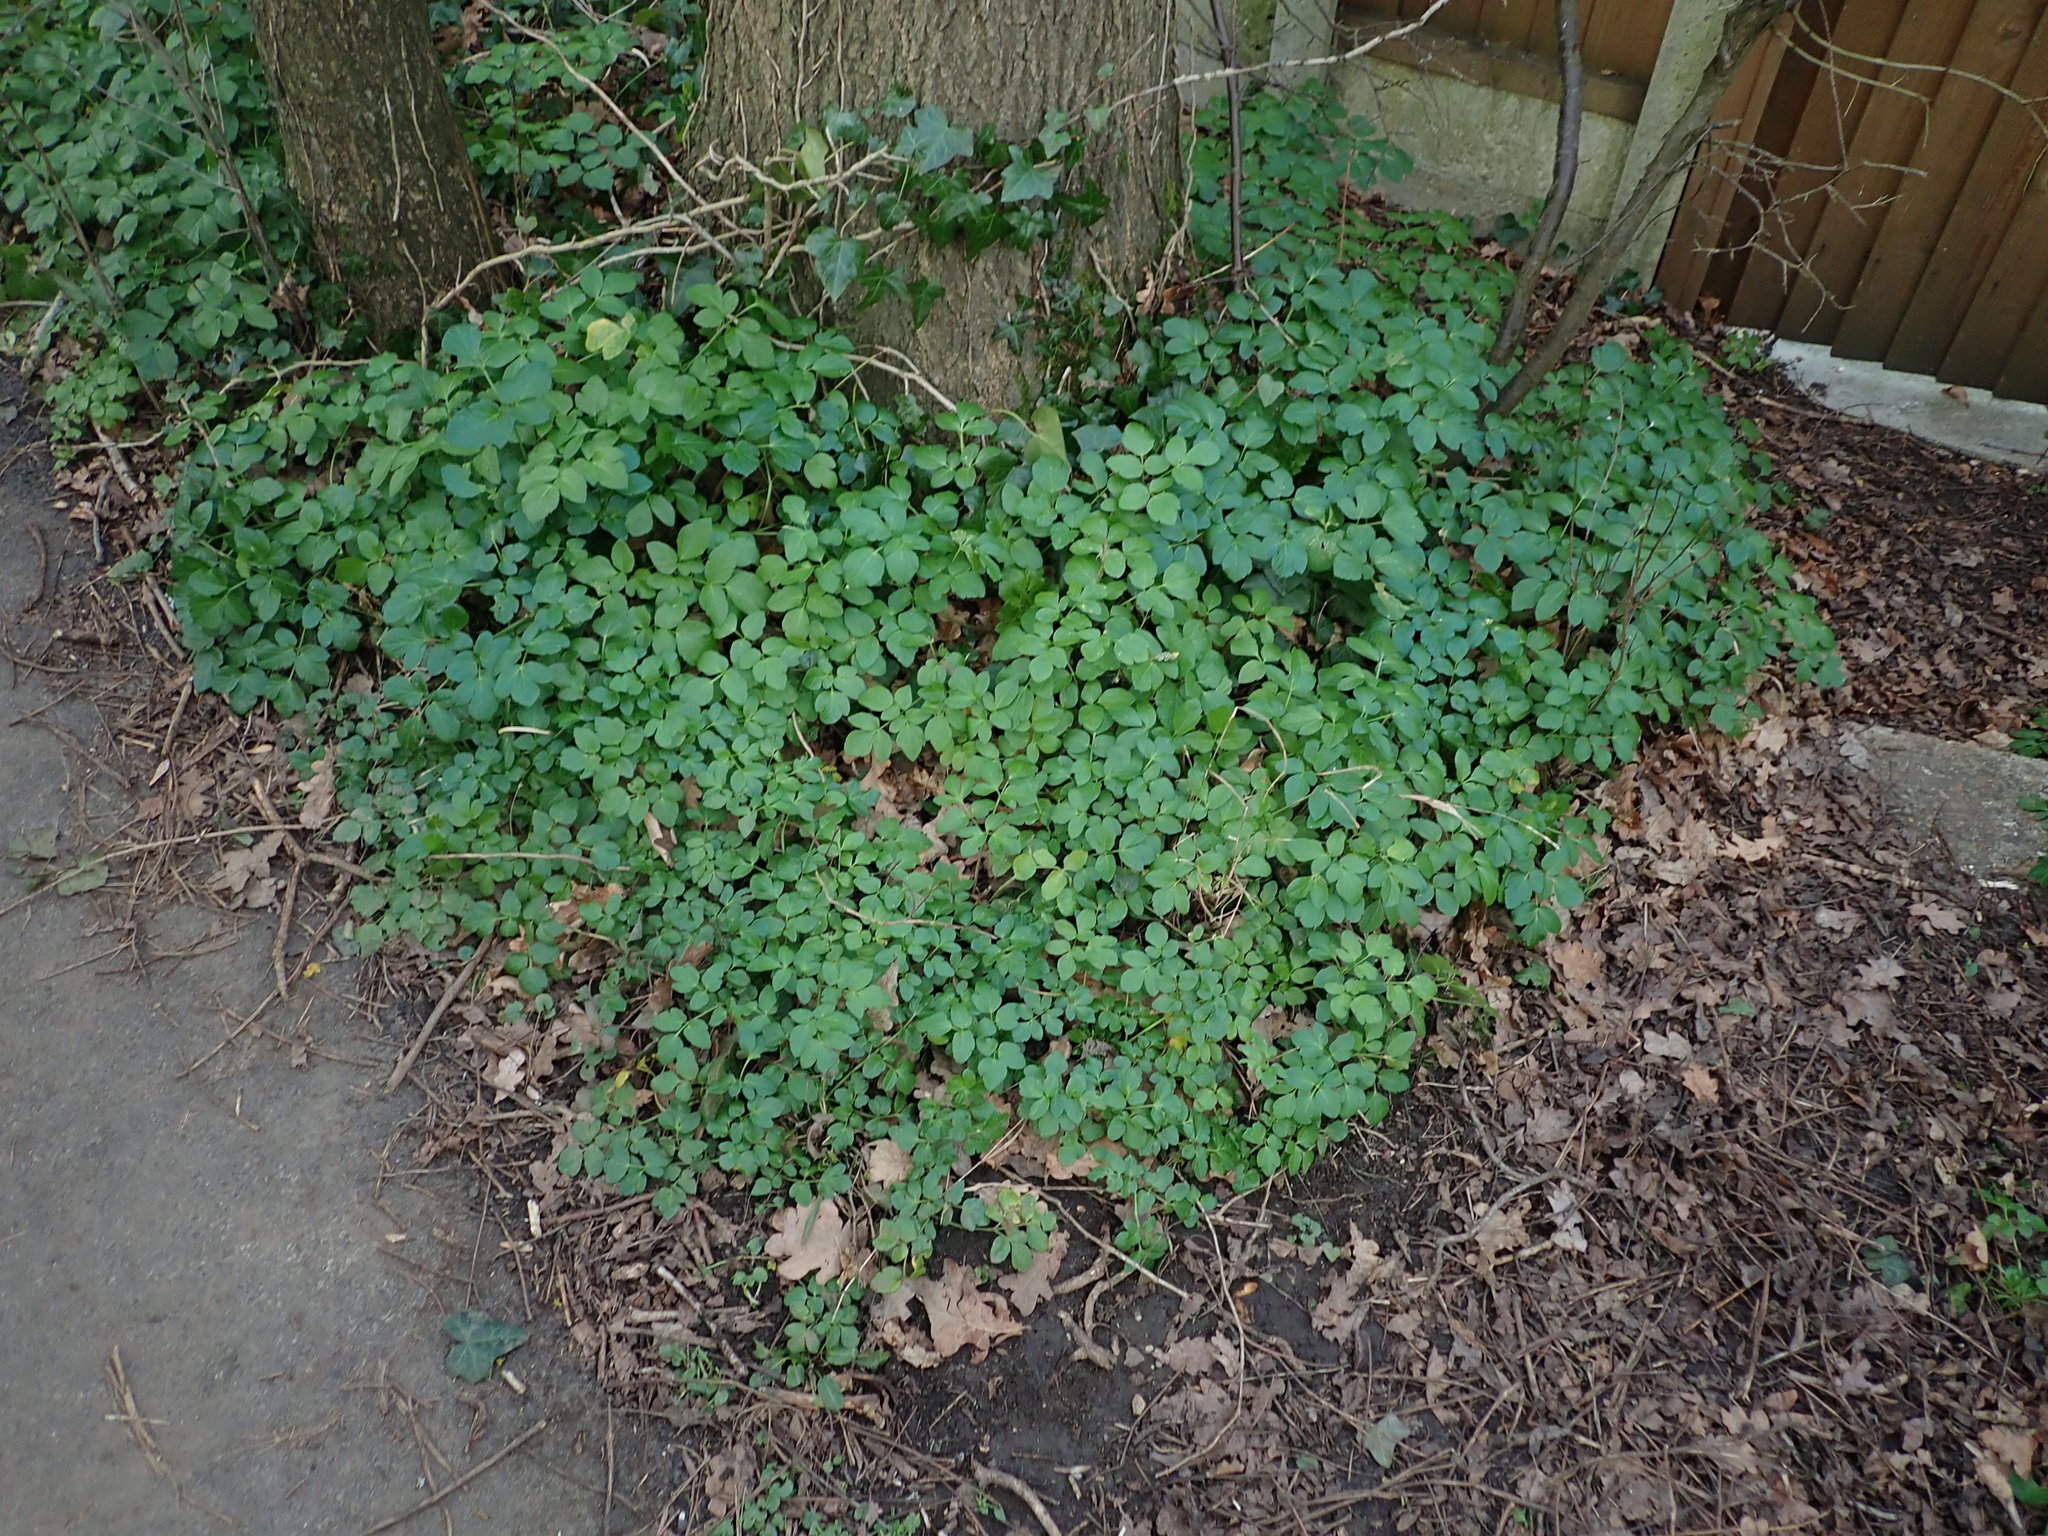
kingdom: Plantae
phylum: Tracheophyta
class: Magnoliopsida
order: Apiales
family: Apiaceae
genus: Smyrnium
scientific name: Smyrnium olusatrum
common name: Alexanders
